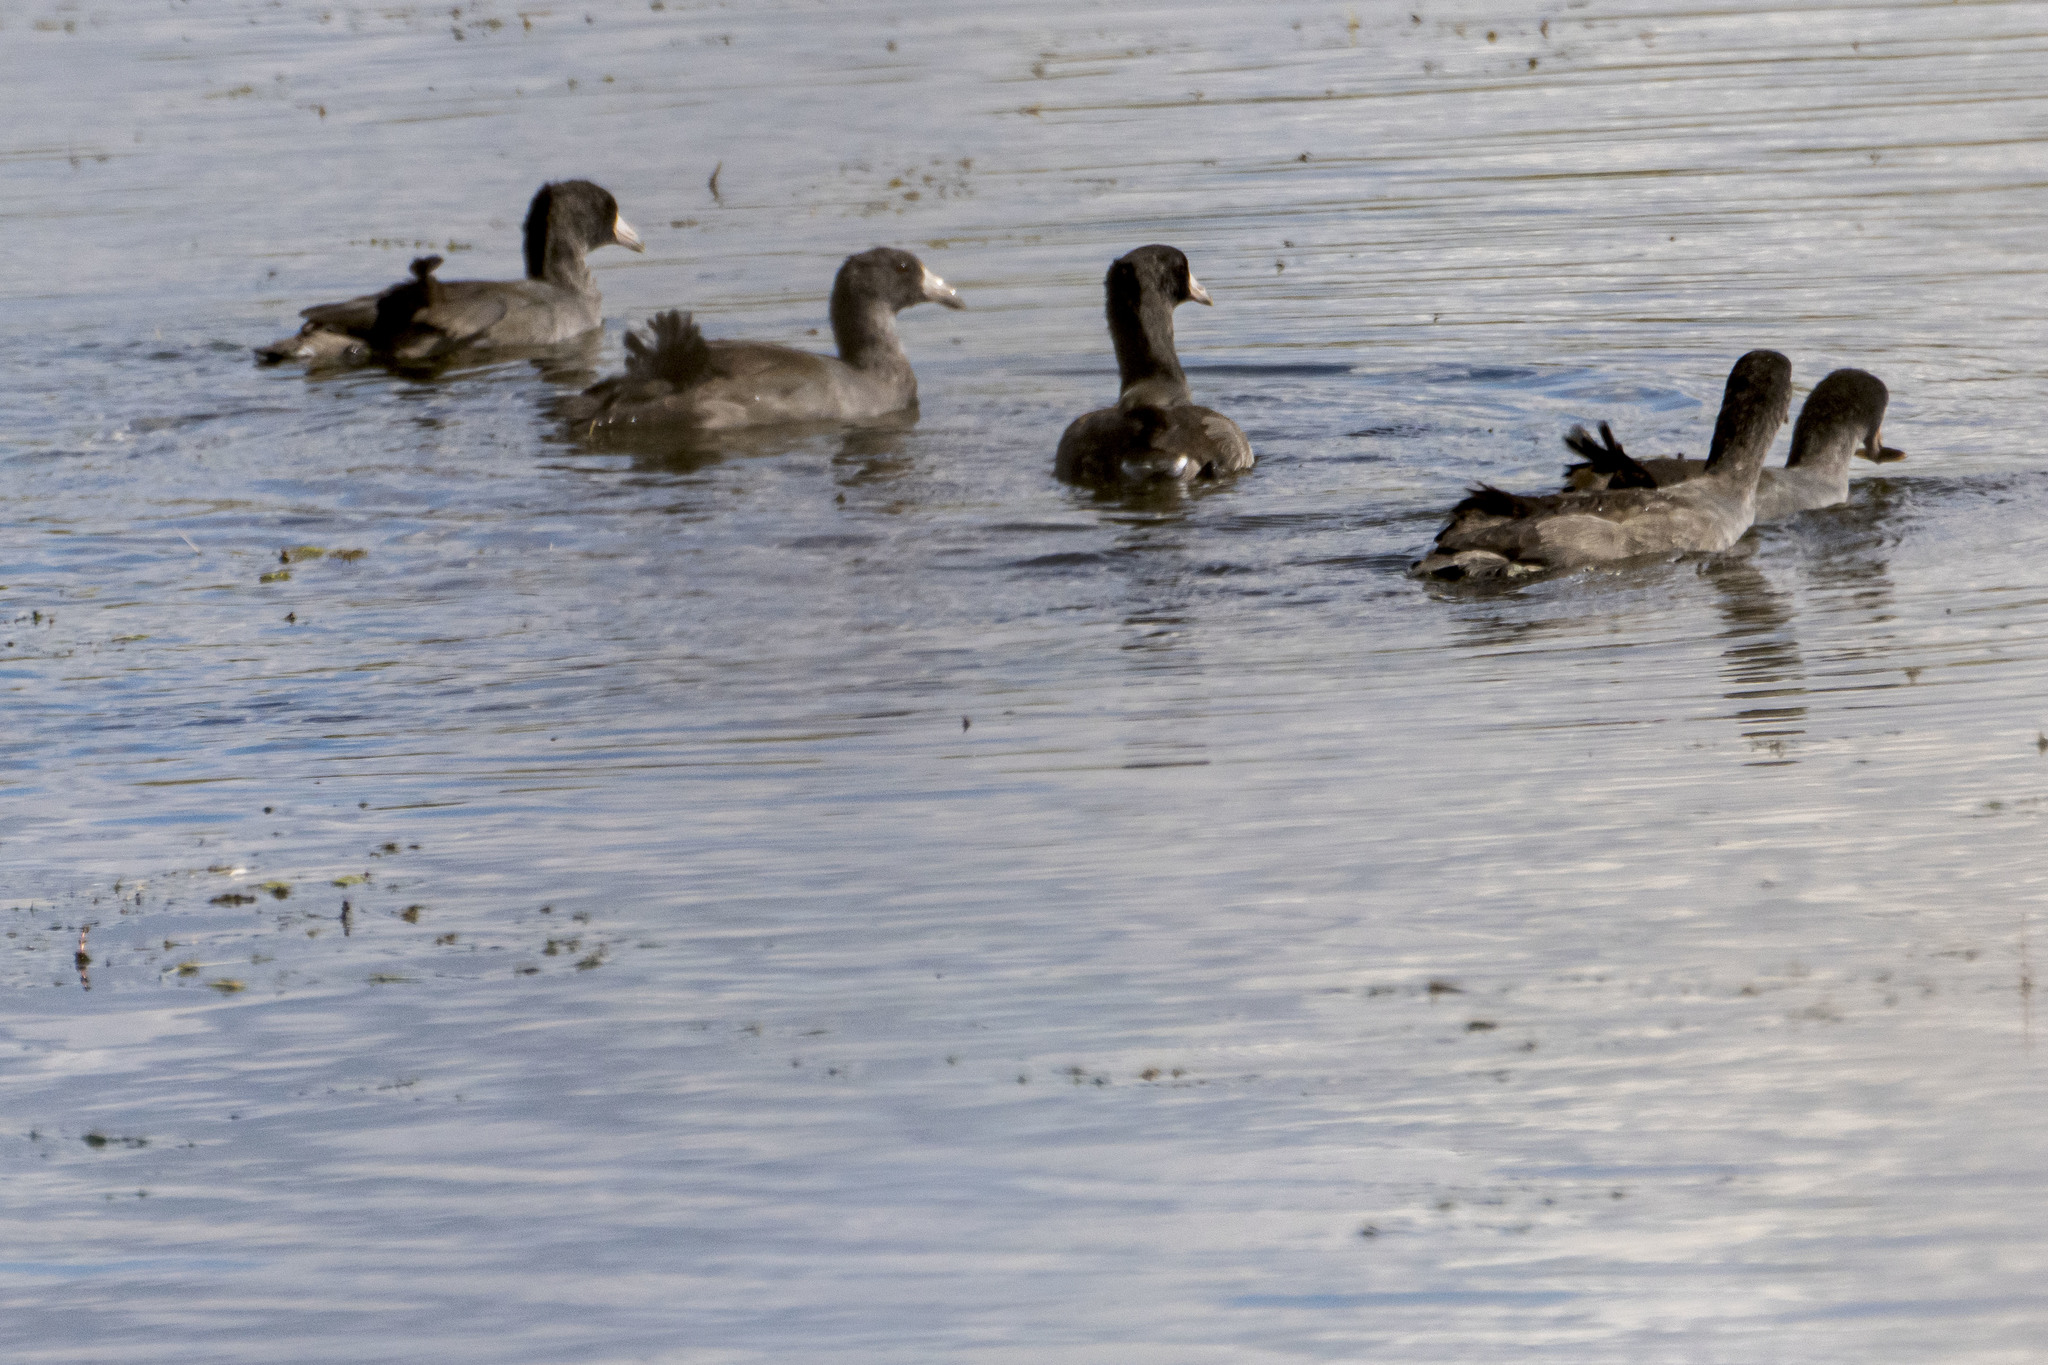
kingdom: Animalia
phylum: Chordata
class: Aves
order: Gruiformes
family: Rallidae
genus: Fulica
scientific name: Fulica americana
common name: American coot
